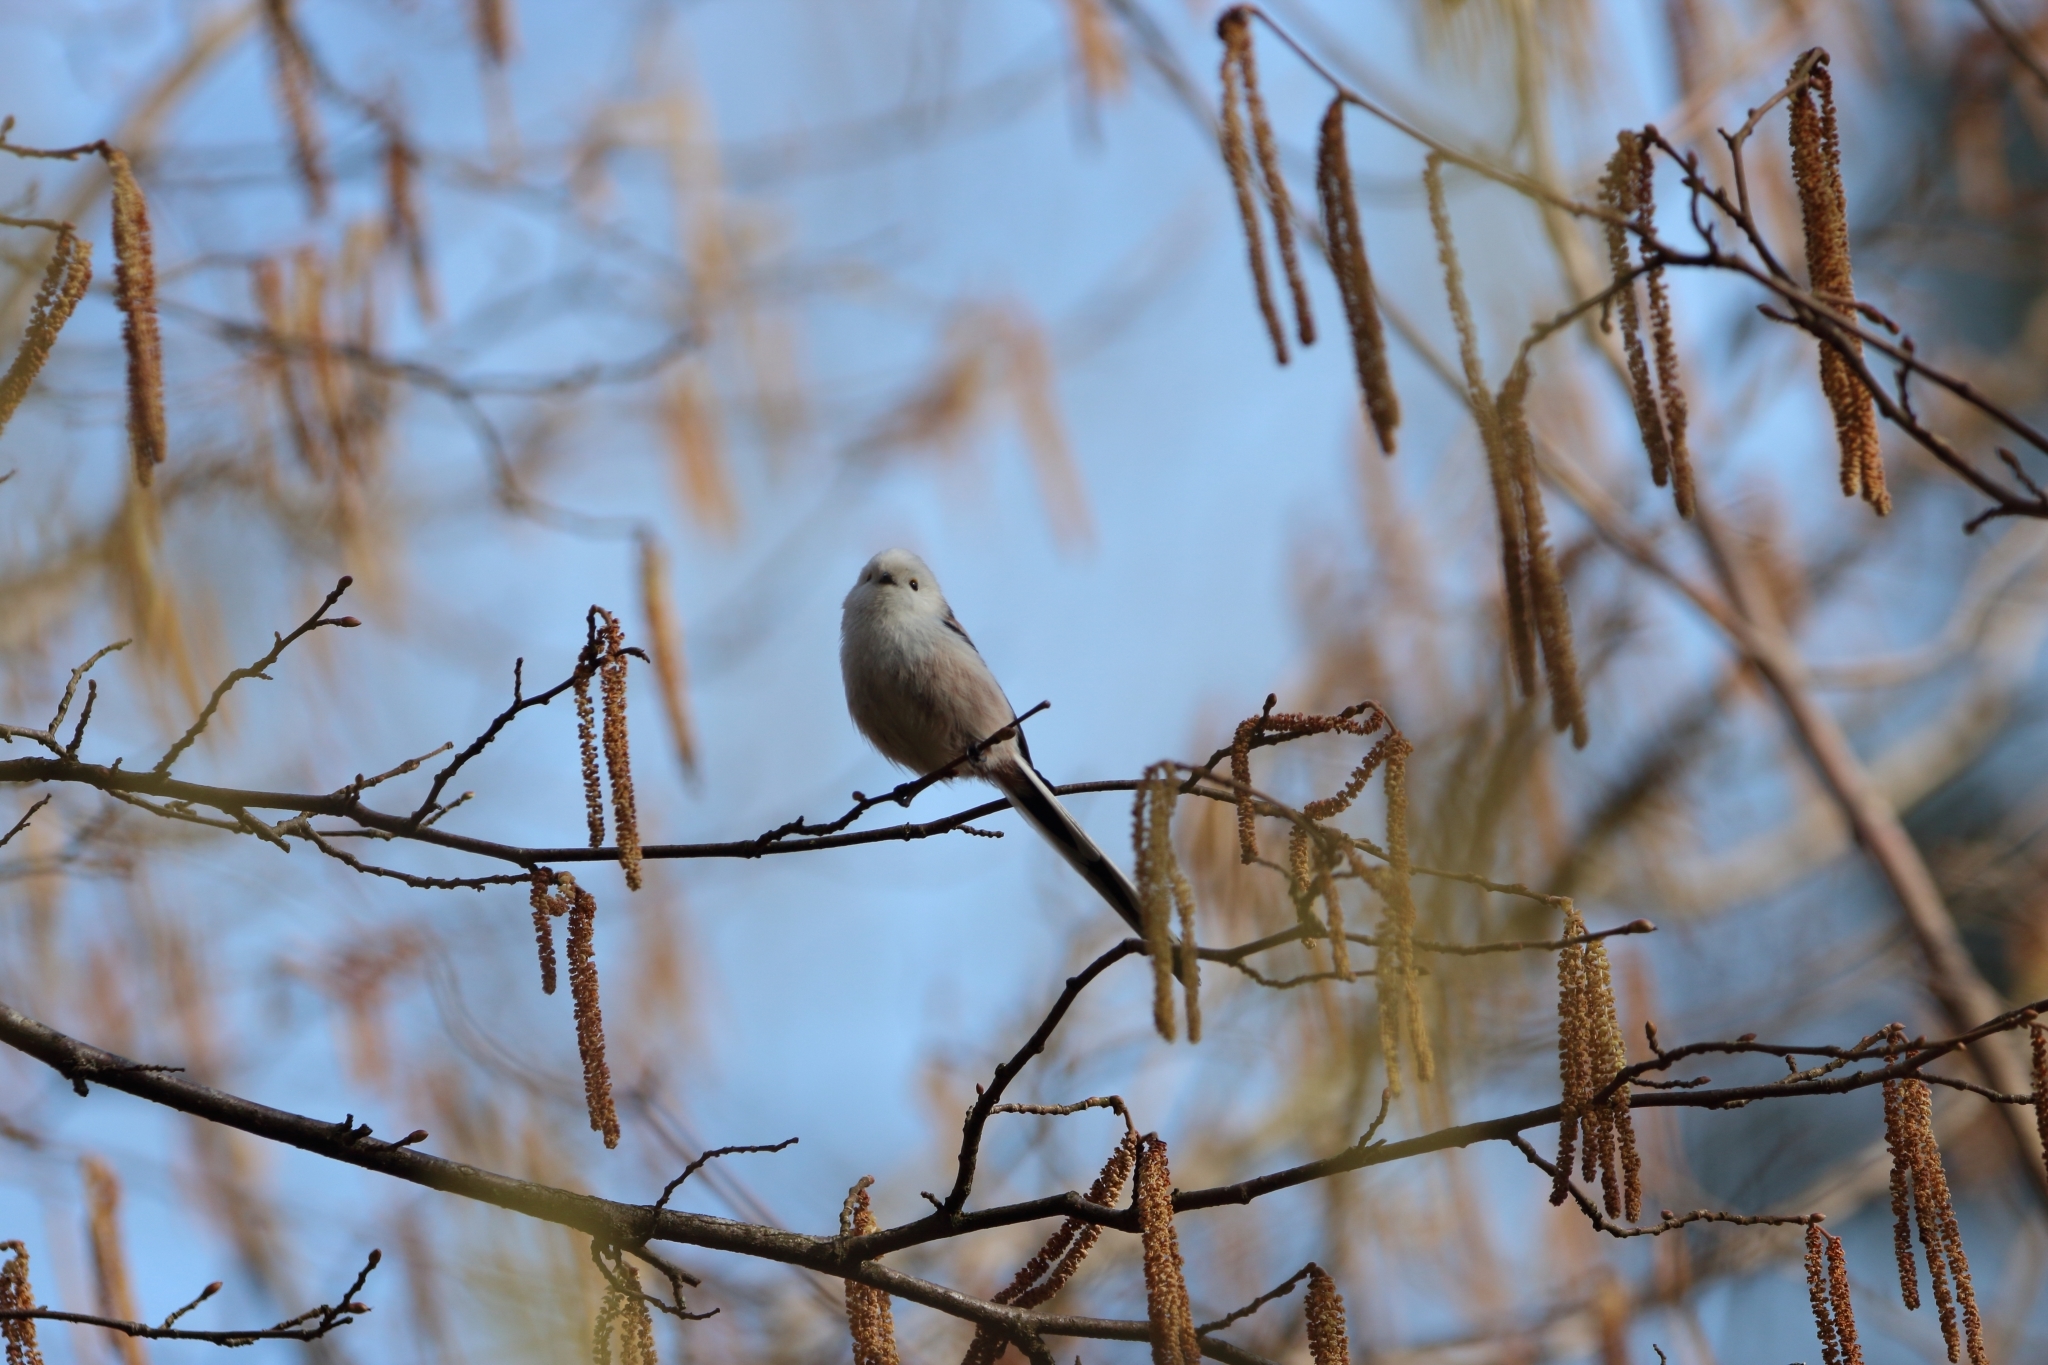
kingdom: Animalia
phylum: Chordata
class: Aves
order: Passeriformes
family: Aegithalidae
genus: Aegithalos
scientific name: Aegithalos caudatus
